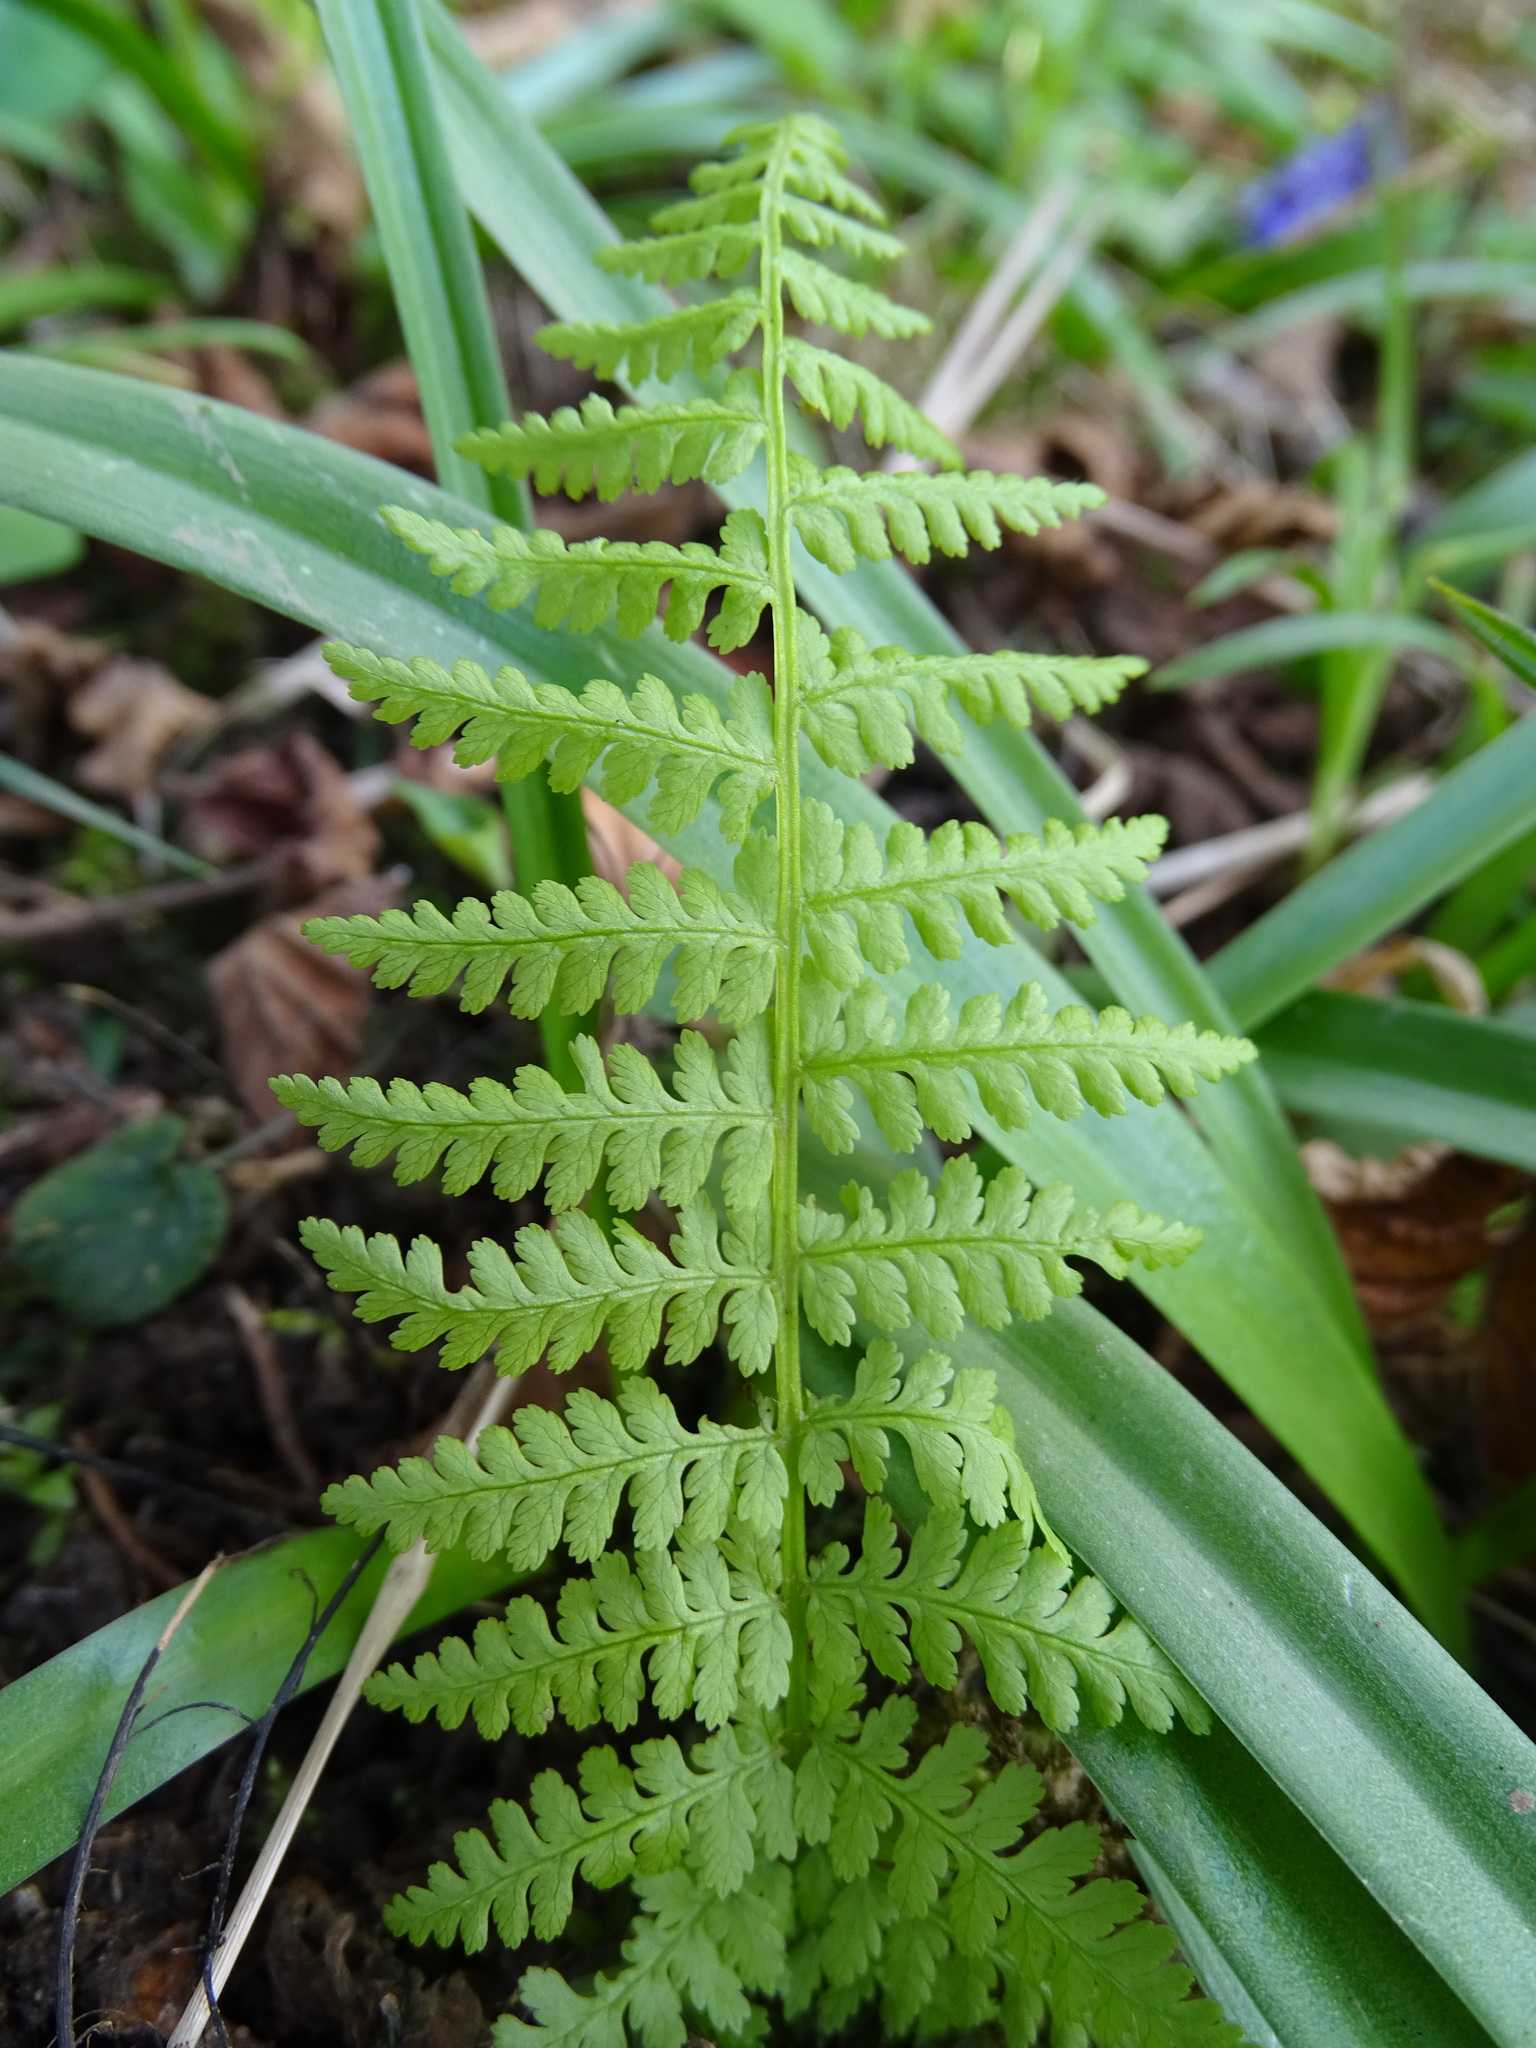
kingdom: Plantae
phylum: Tracheophyta
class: Polypodiopsida
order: Polypodiales
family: Dryopteridaceae
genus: Dryopteris
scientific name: Dryopteris filix-mas
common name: Male fern
